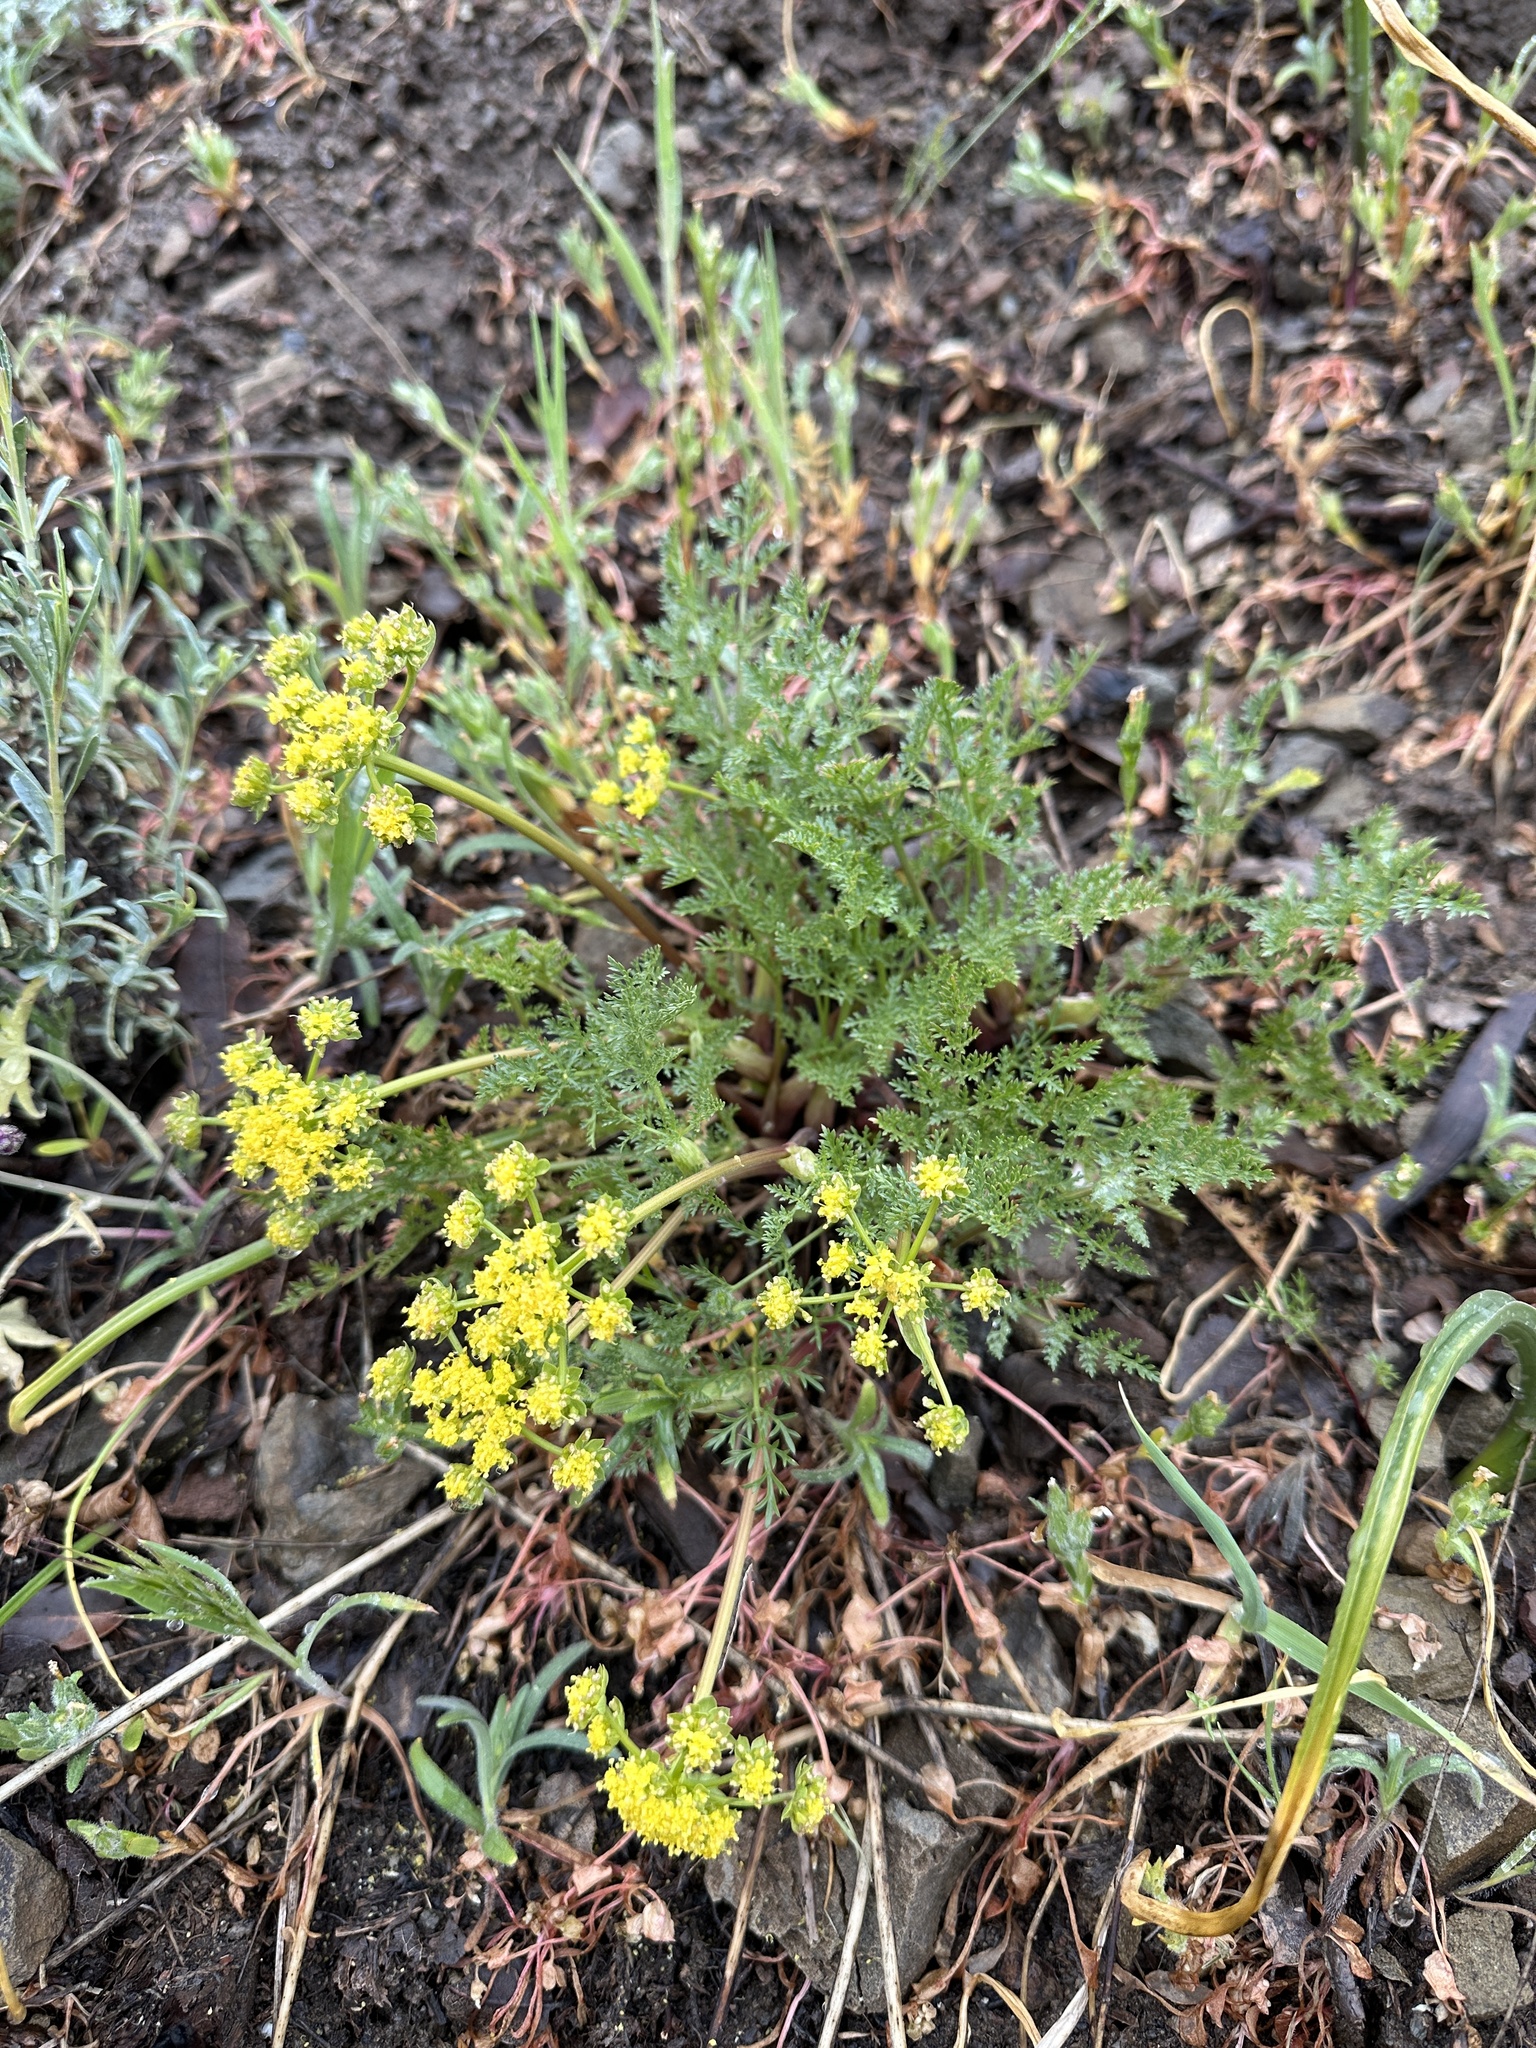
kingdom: Plantae
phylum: Tracheophyta
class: Magnoliopsida
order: Apiales
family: Apiaceae
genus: Lomatium
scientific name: Lomatium observatorium
